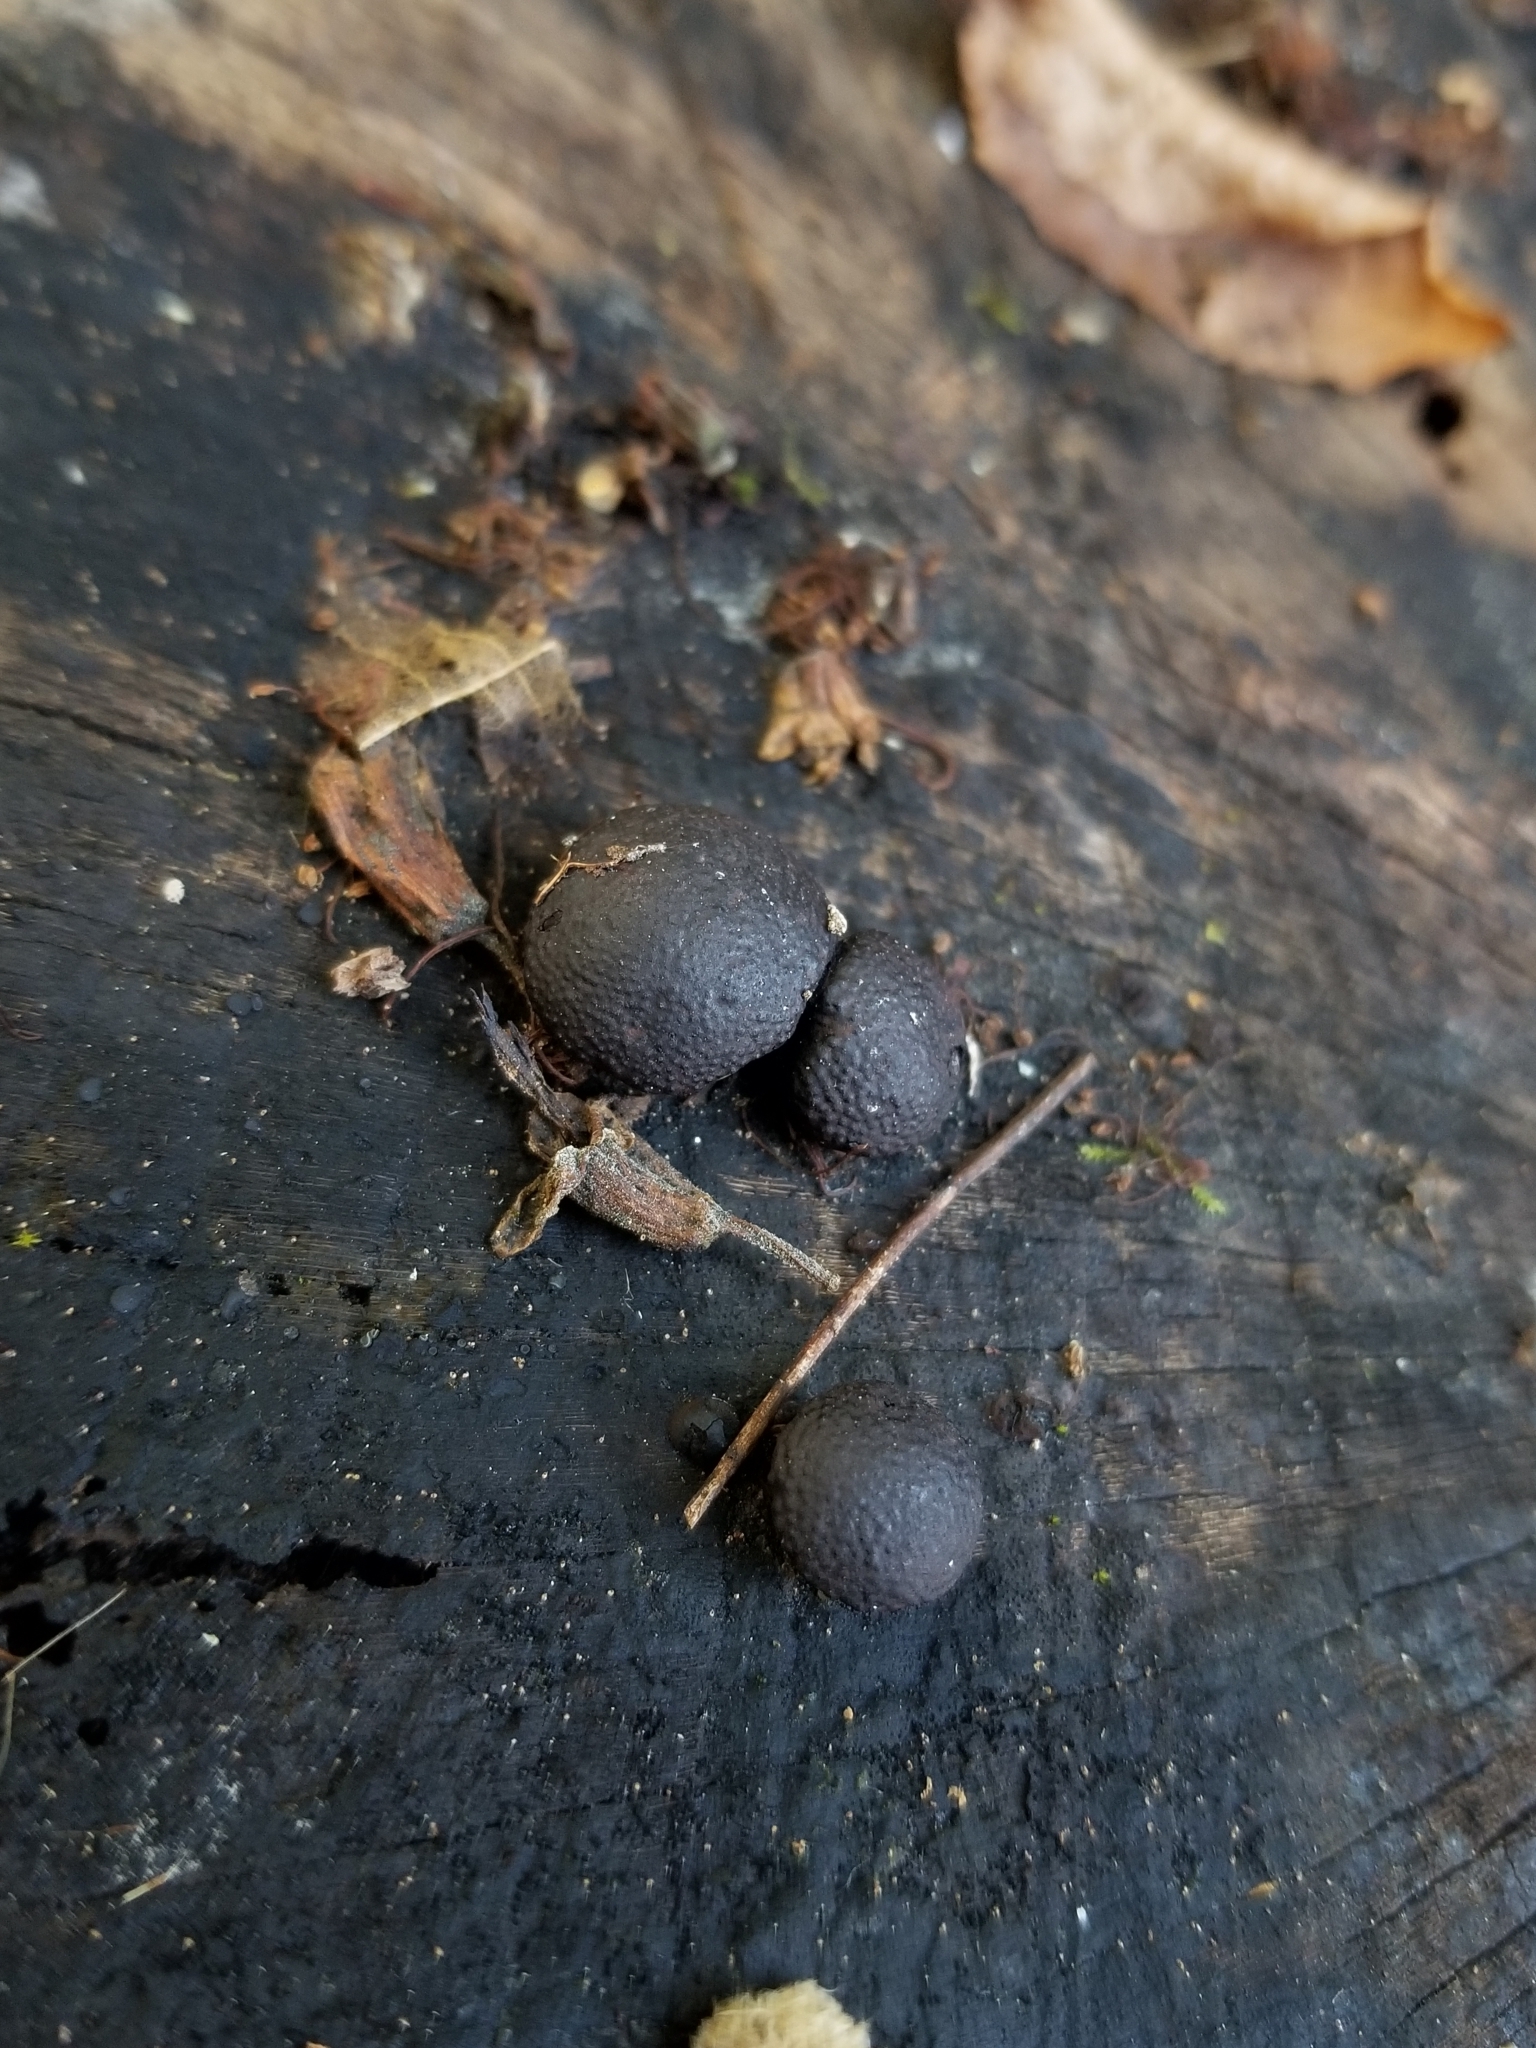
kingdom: Fungi
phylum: Ascomycota
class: Sordariomycetes
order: Xylariales
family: Hypoxylaceae
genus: Annulohypoxylon
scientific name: Annulohypoxylon thouarsianum
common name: Cramp balls
